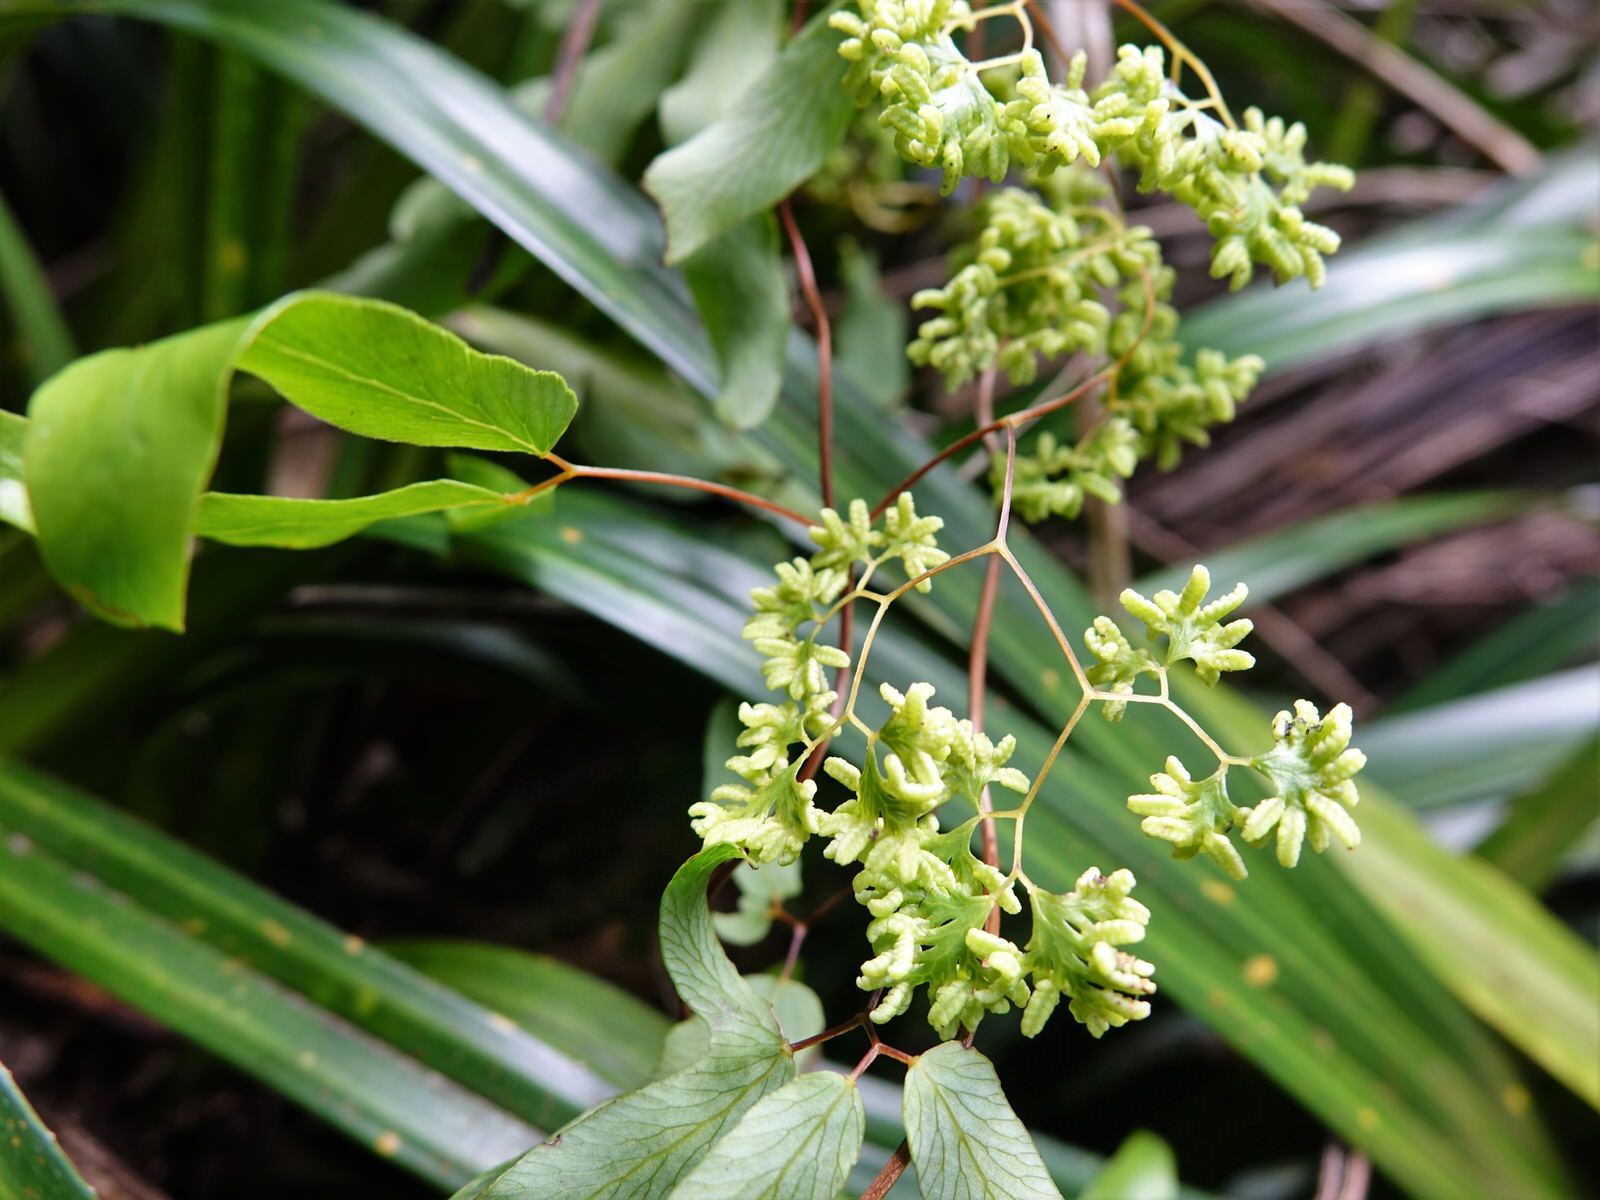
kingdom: Plantae
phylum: Tracheophyta
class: Polypodiopsida
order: Schizaeales
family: Lygodiaceae
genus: Lygodium
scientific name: Lygodium articulatum
